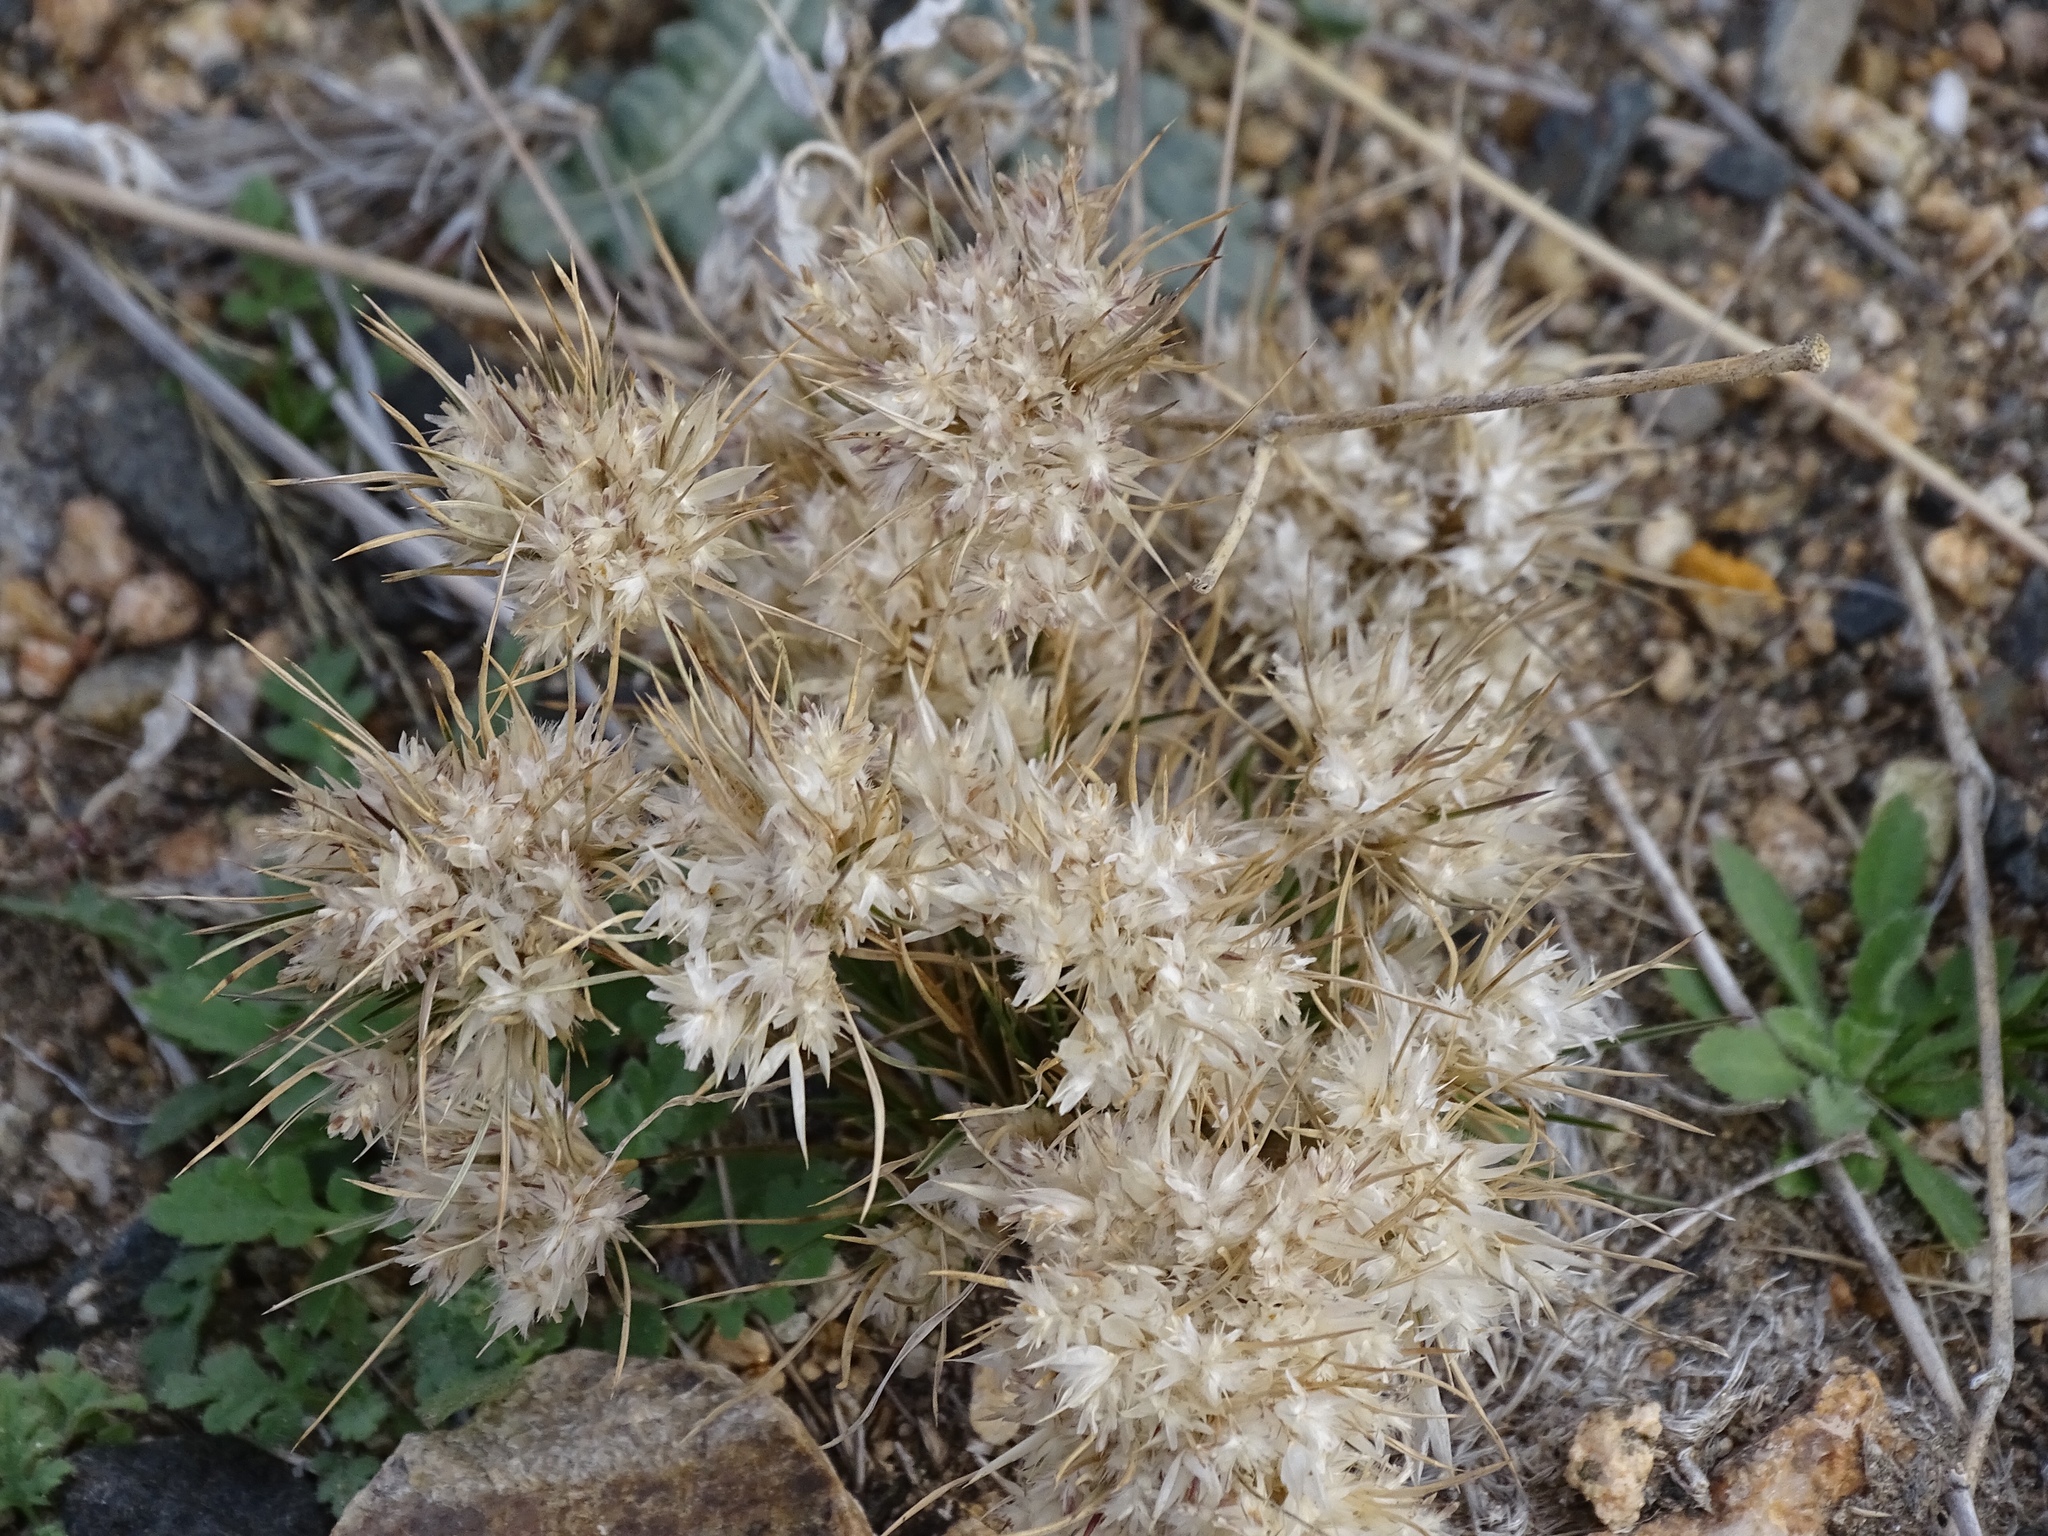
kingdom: Plantae
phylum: Tracheophyta
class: Liliopsida
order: Poales
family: Poaceae
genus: Dasyochloa
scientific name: Dasyochloa pulchella
